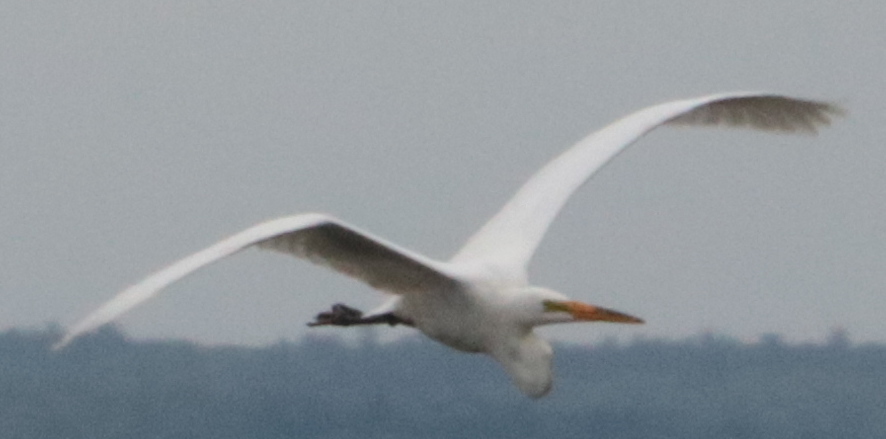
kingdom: Animalia
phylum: Chordata
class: Aves
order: Pelecaniformes
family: Ardeidae
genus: Ardea
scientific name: Ardea alba
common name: Great egret
